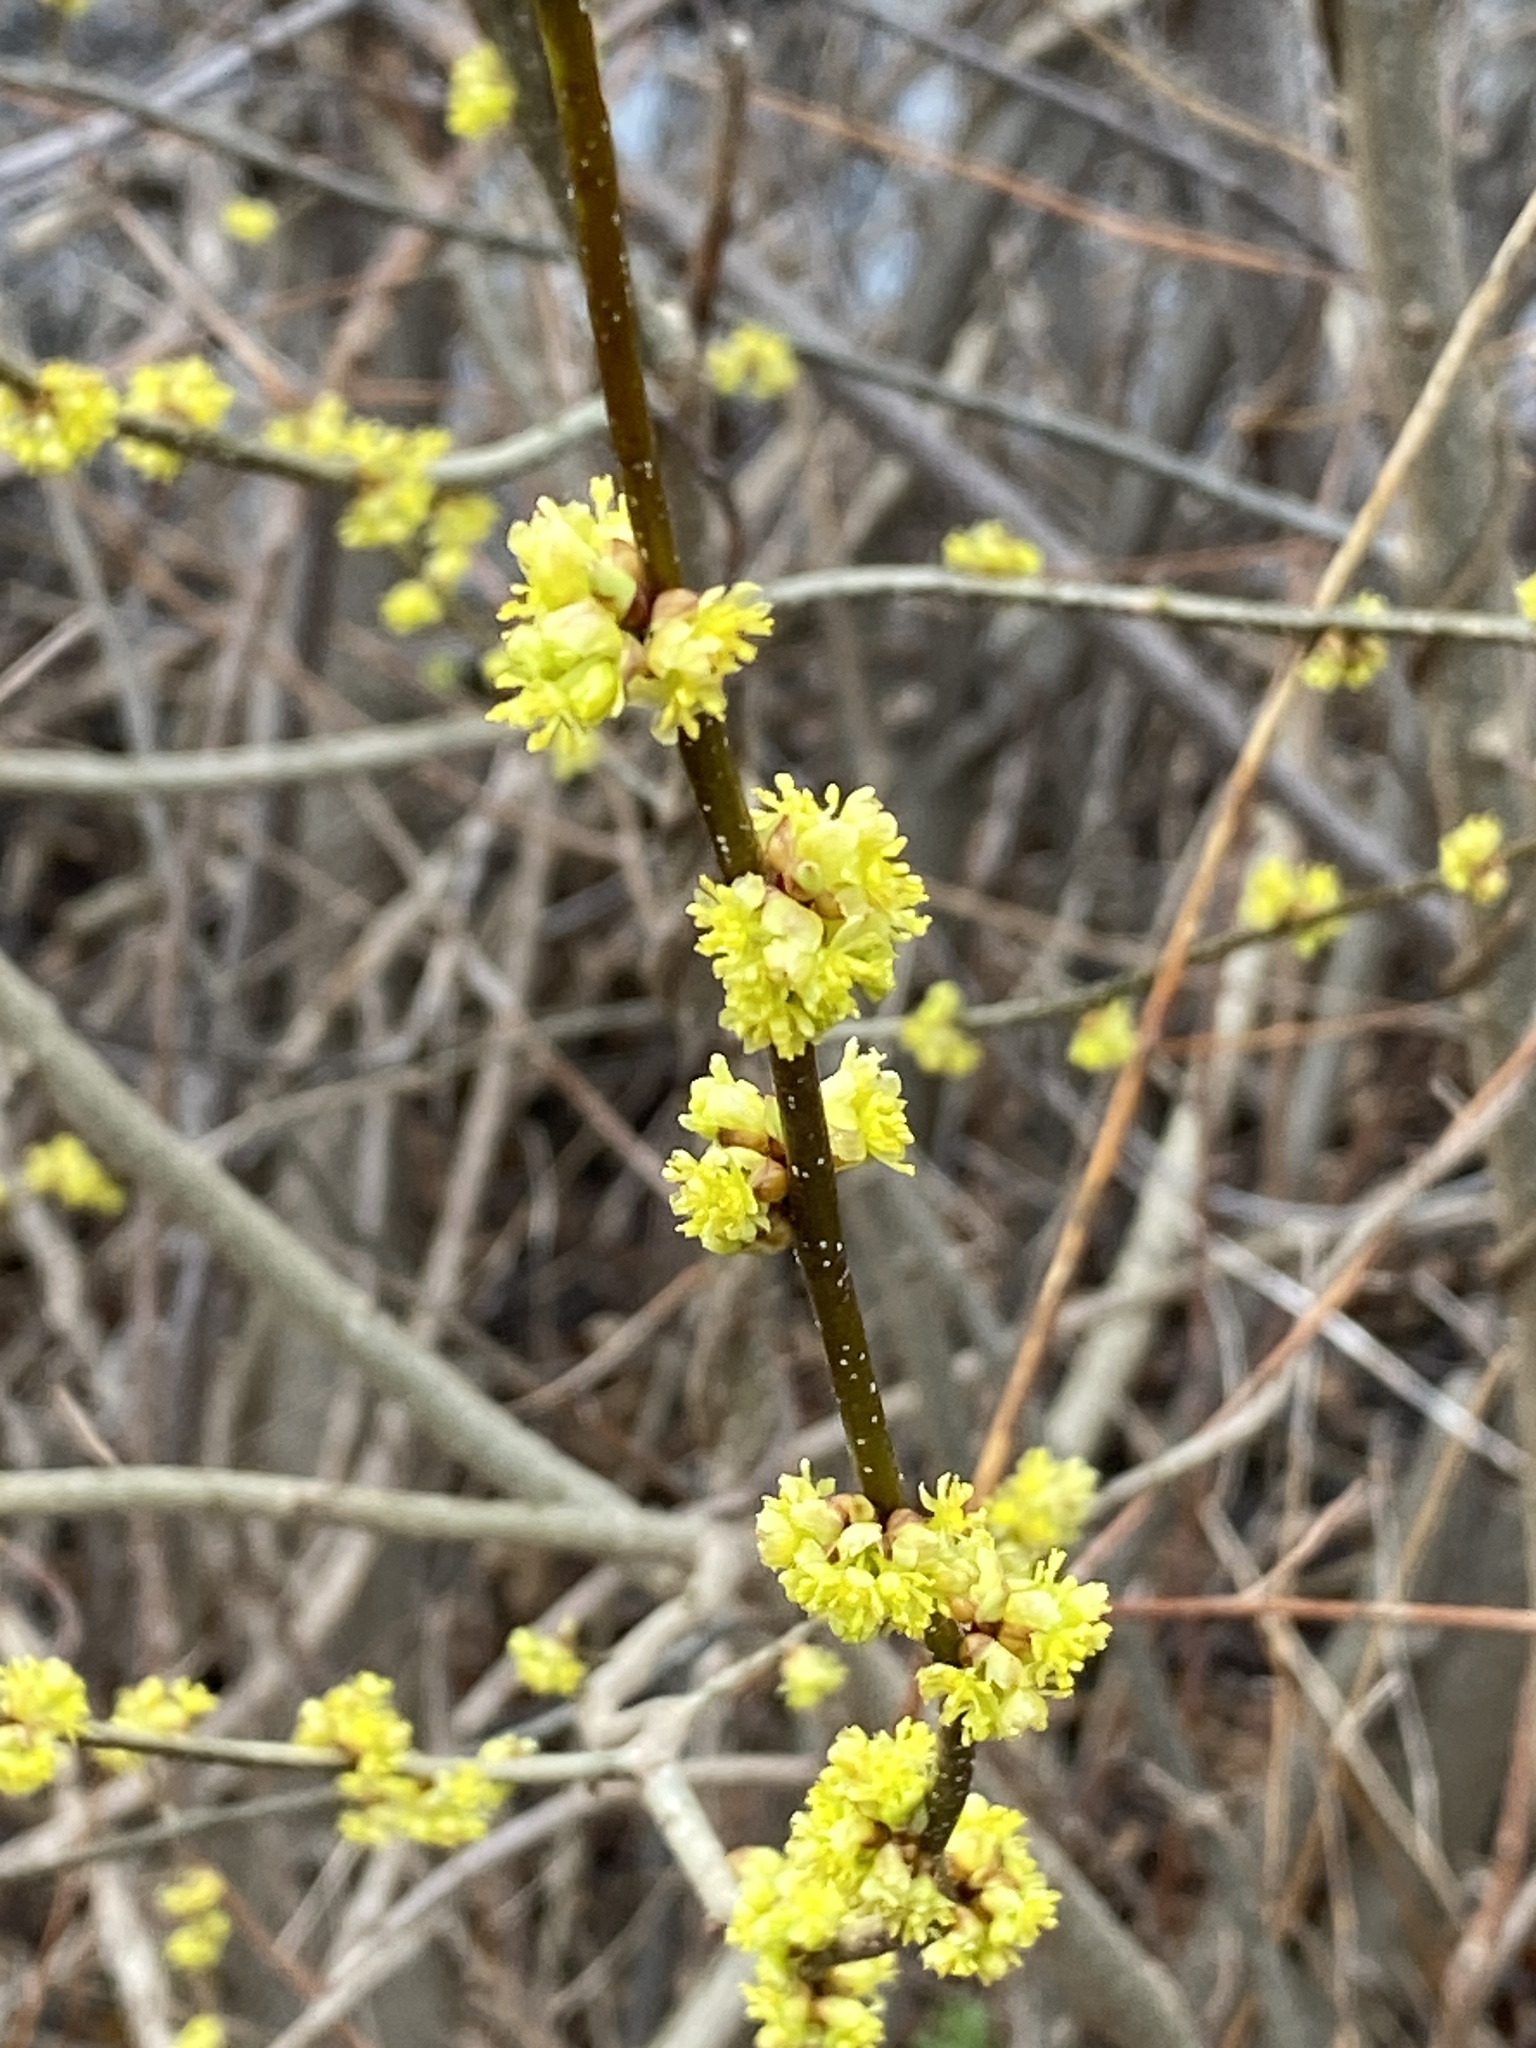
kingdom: Plantae
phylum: Tracheophyta
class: Magnoliopsida
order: Laurales
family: Lauraceae
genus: Lindera
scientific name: Lindera benzoin
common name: Spicebush
